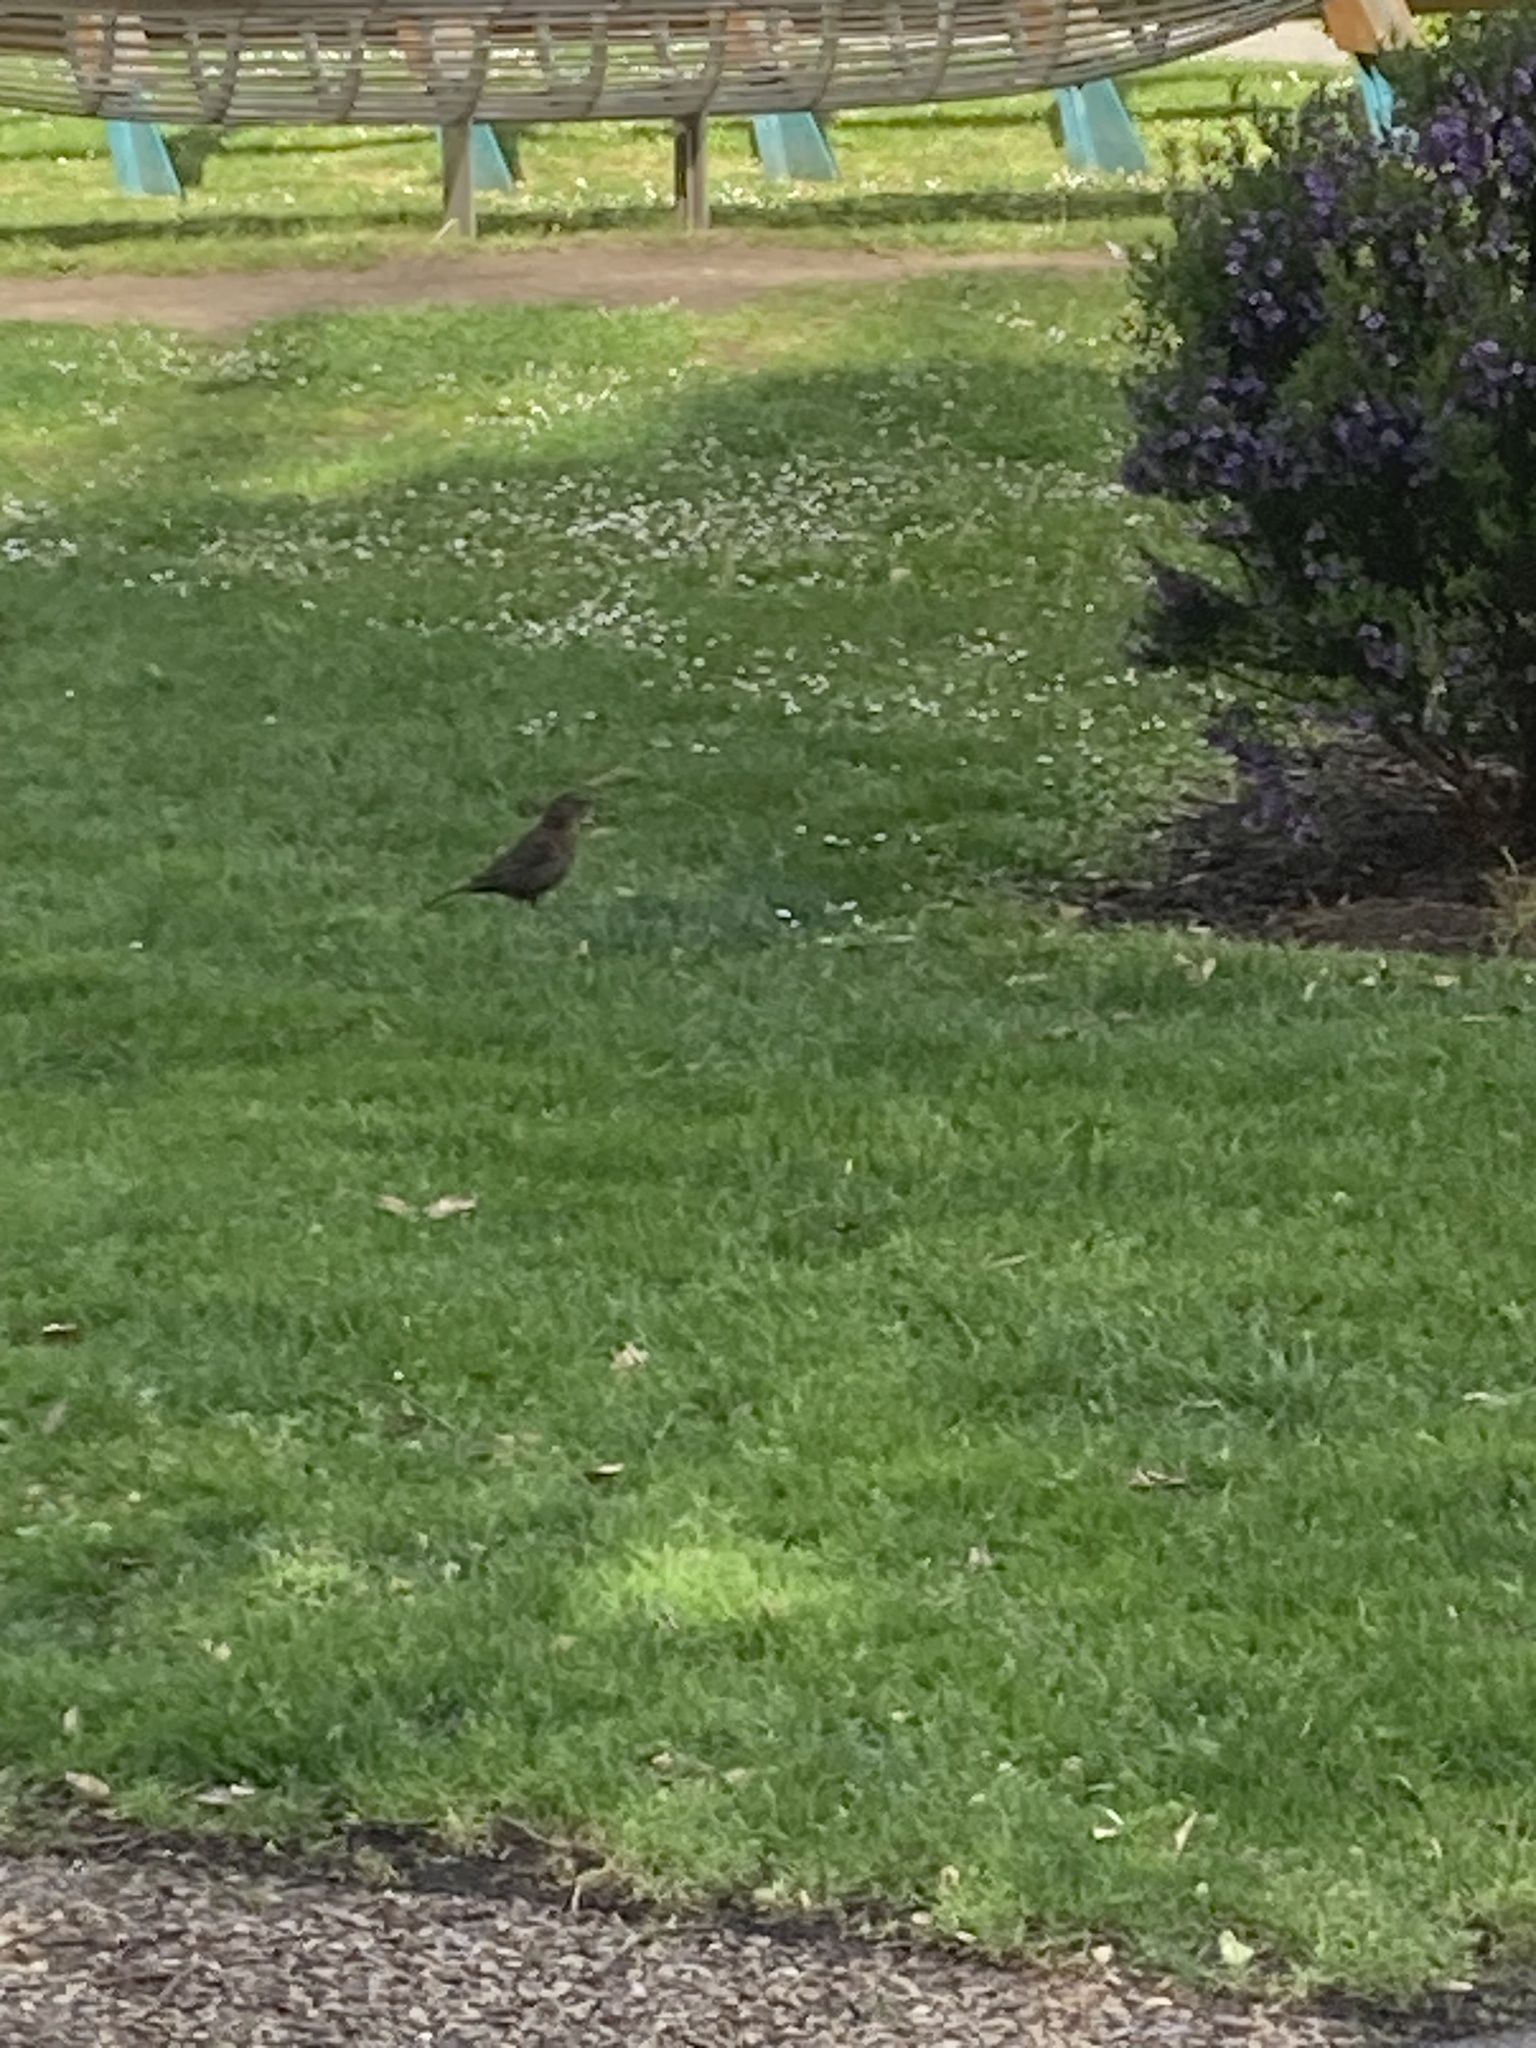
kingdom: Animalia
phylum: Chordata
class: Aves
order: Passeriformes
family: Turdidae
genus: Turdus
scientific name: Turdus merula
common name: Common blackbird
